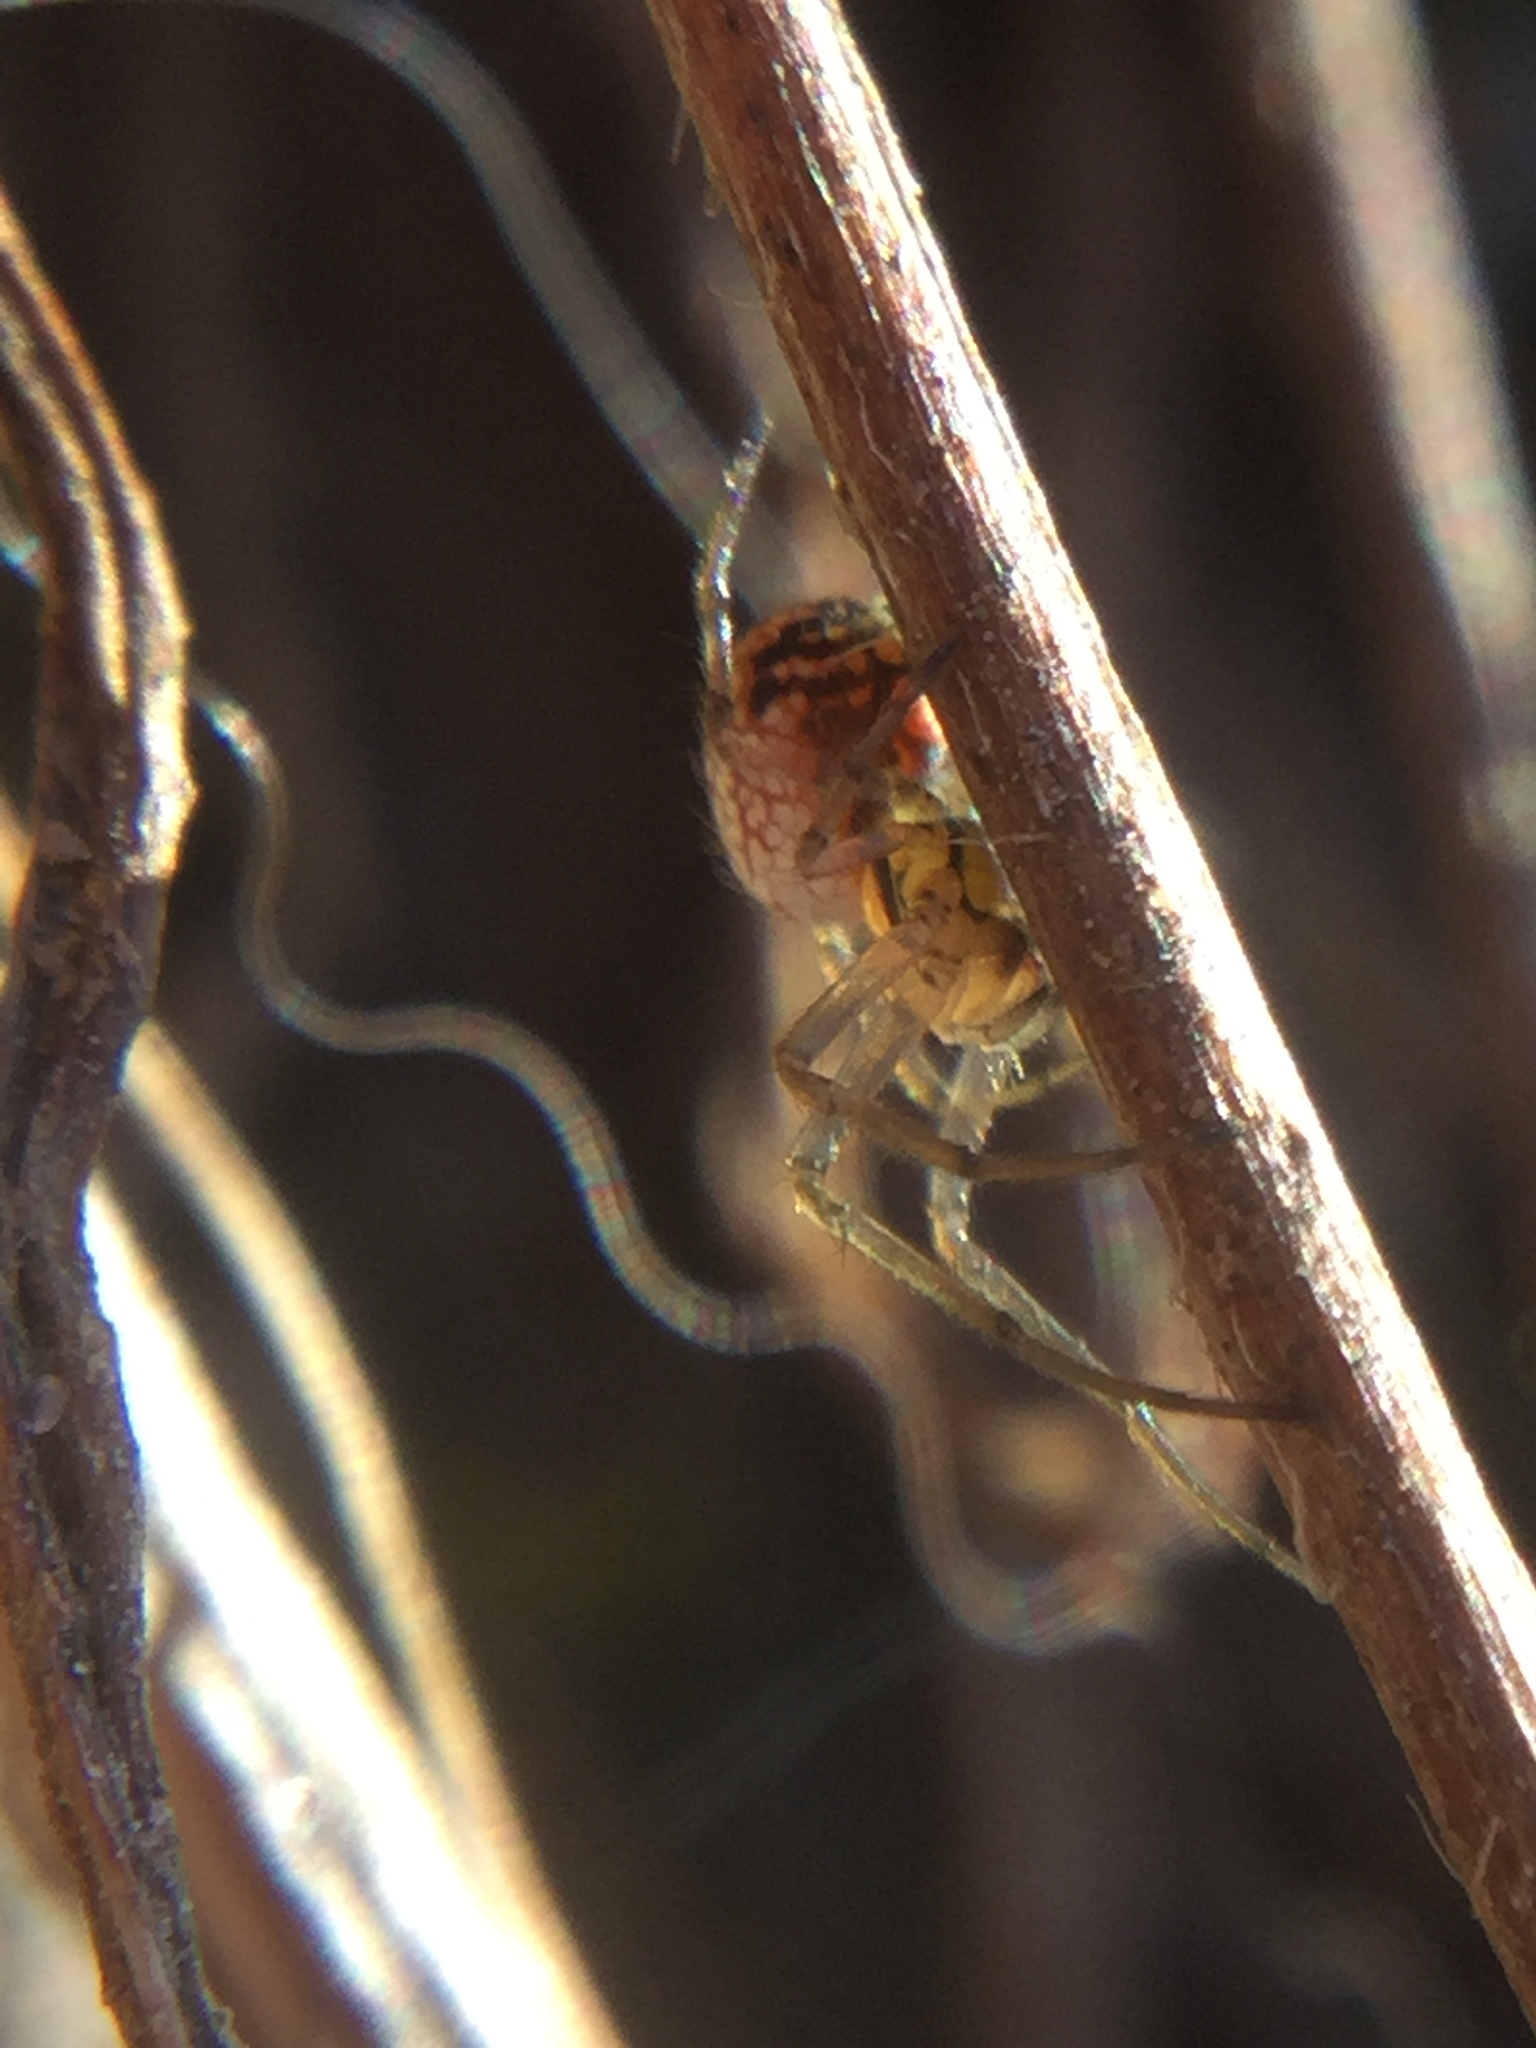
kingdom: Animalia
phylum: Arthropoda
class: Arachnida
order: Araneae
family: Tetragnathidae
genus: Leucauge
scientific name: Leucauge venusta
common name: Longjawed orb weavers
